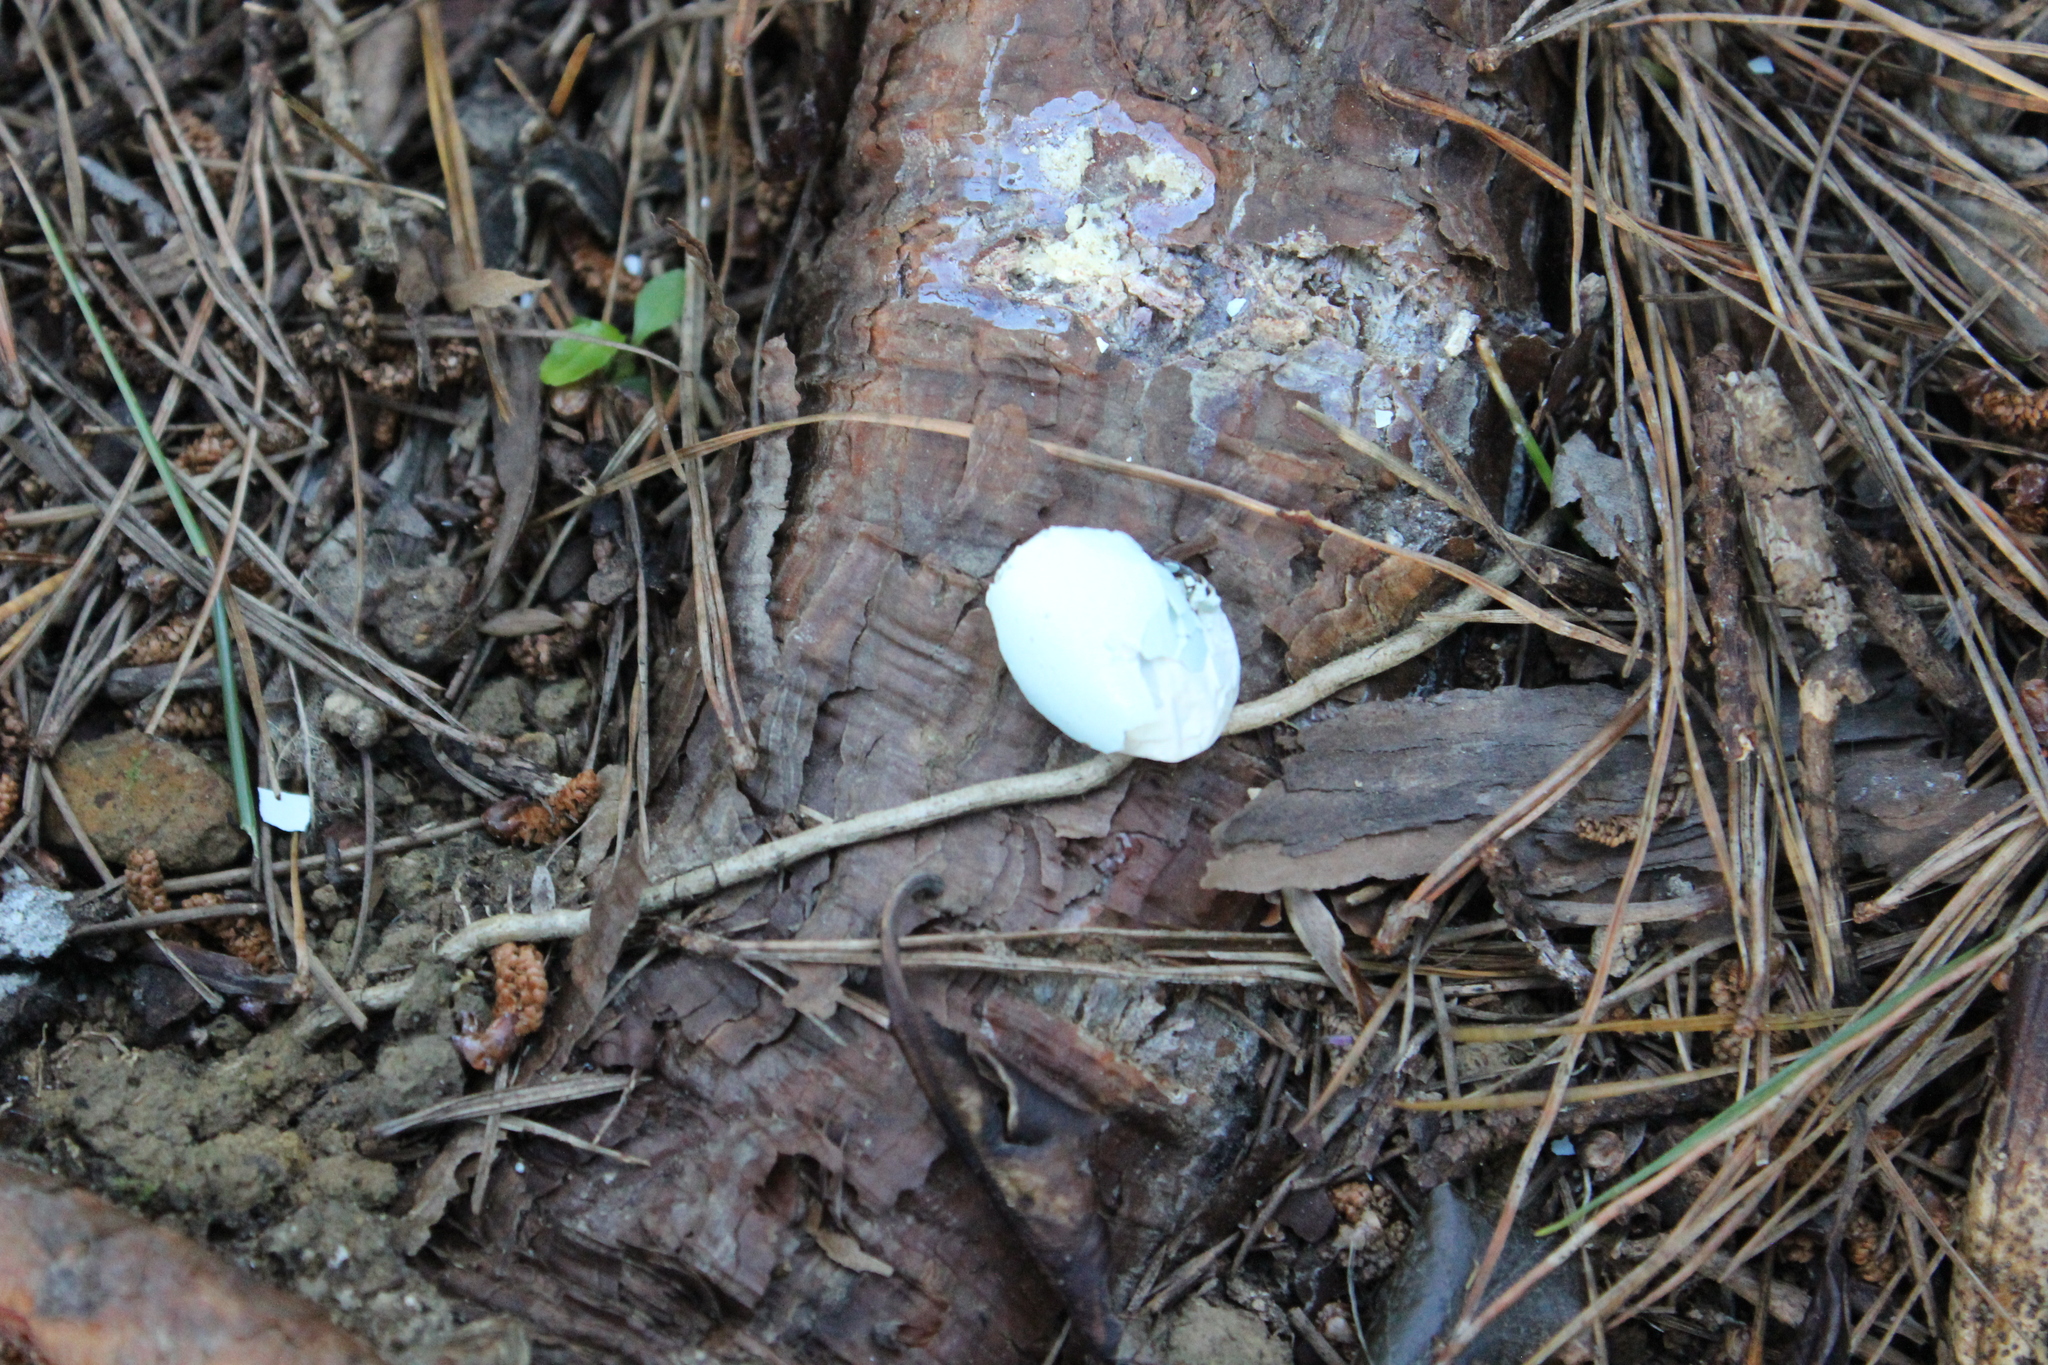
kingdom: Animalia
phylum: Chordata
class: Aves
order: Passeriformes
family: Sturnidae
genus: Sturnus
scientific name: Sturnus vulgaris
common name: Common starling
